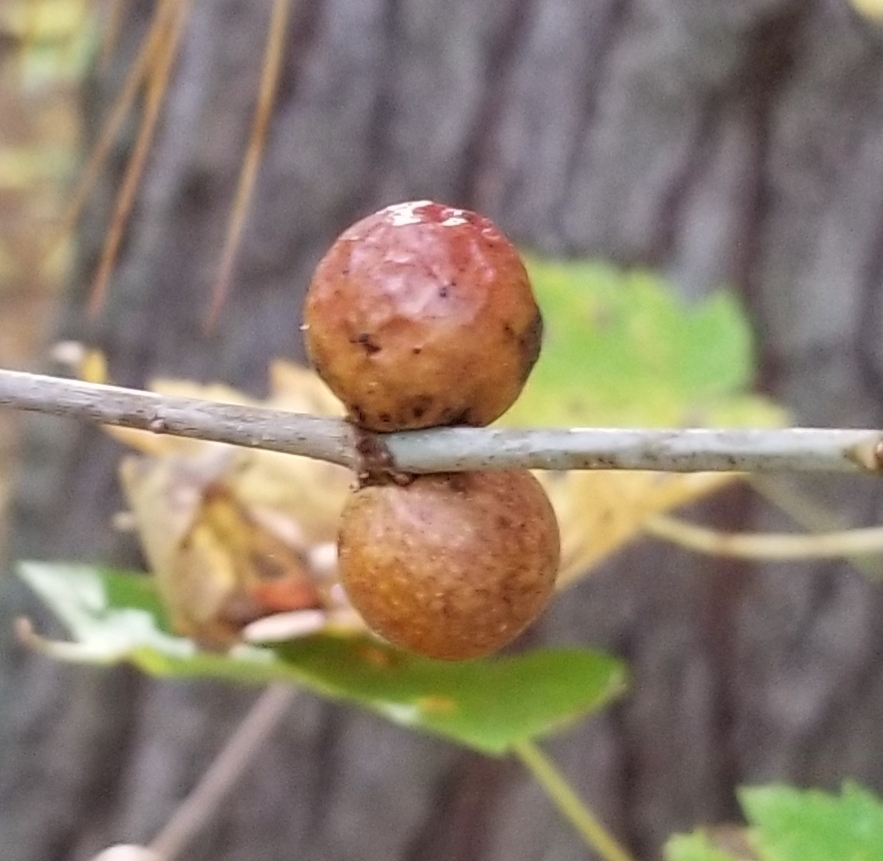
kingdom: Animalia
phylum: Arthropoda
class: Insecta
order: Hymenoptera
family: Cynipidae
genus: Disholcaspis
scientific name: Disholcaspis quercusglobulus
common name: Round bullet gall wasp
